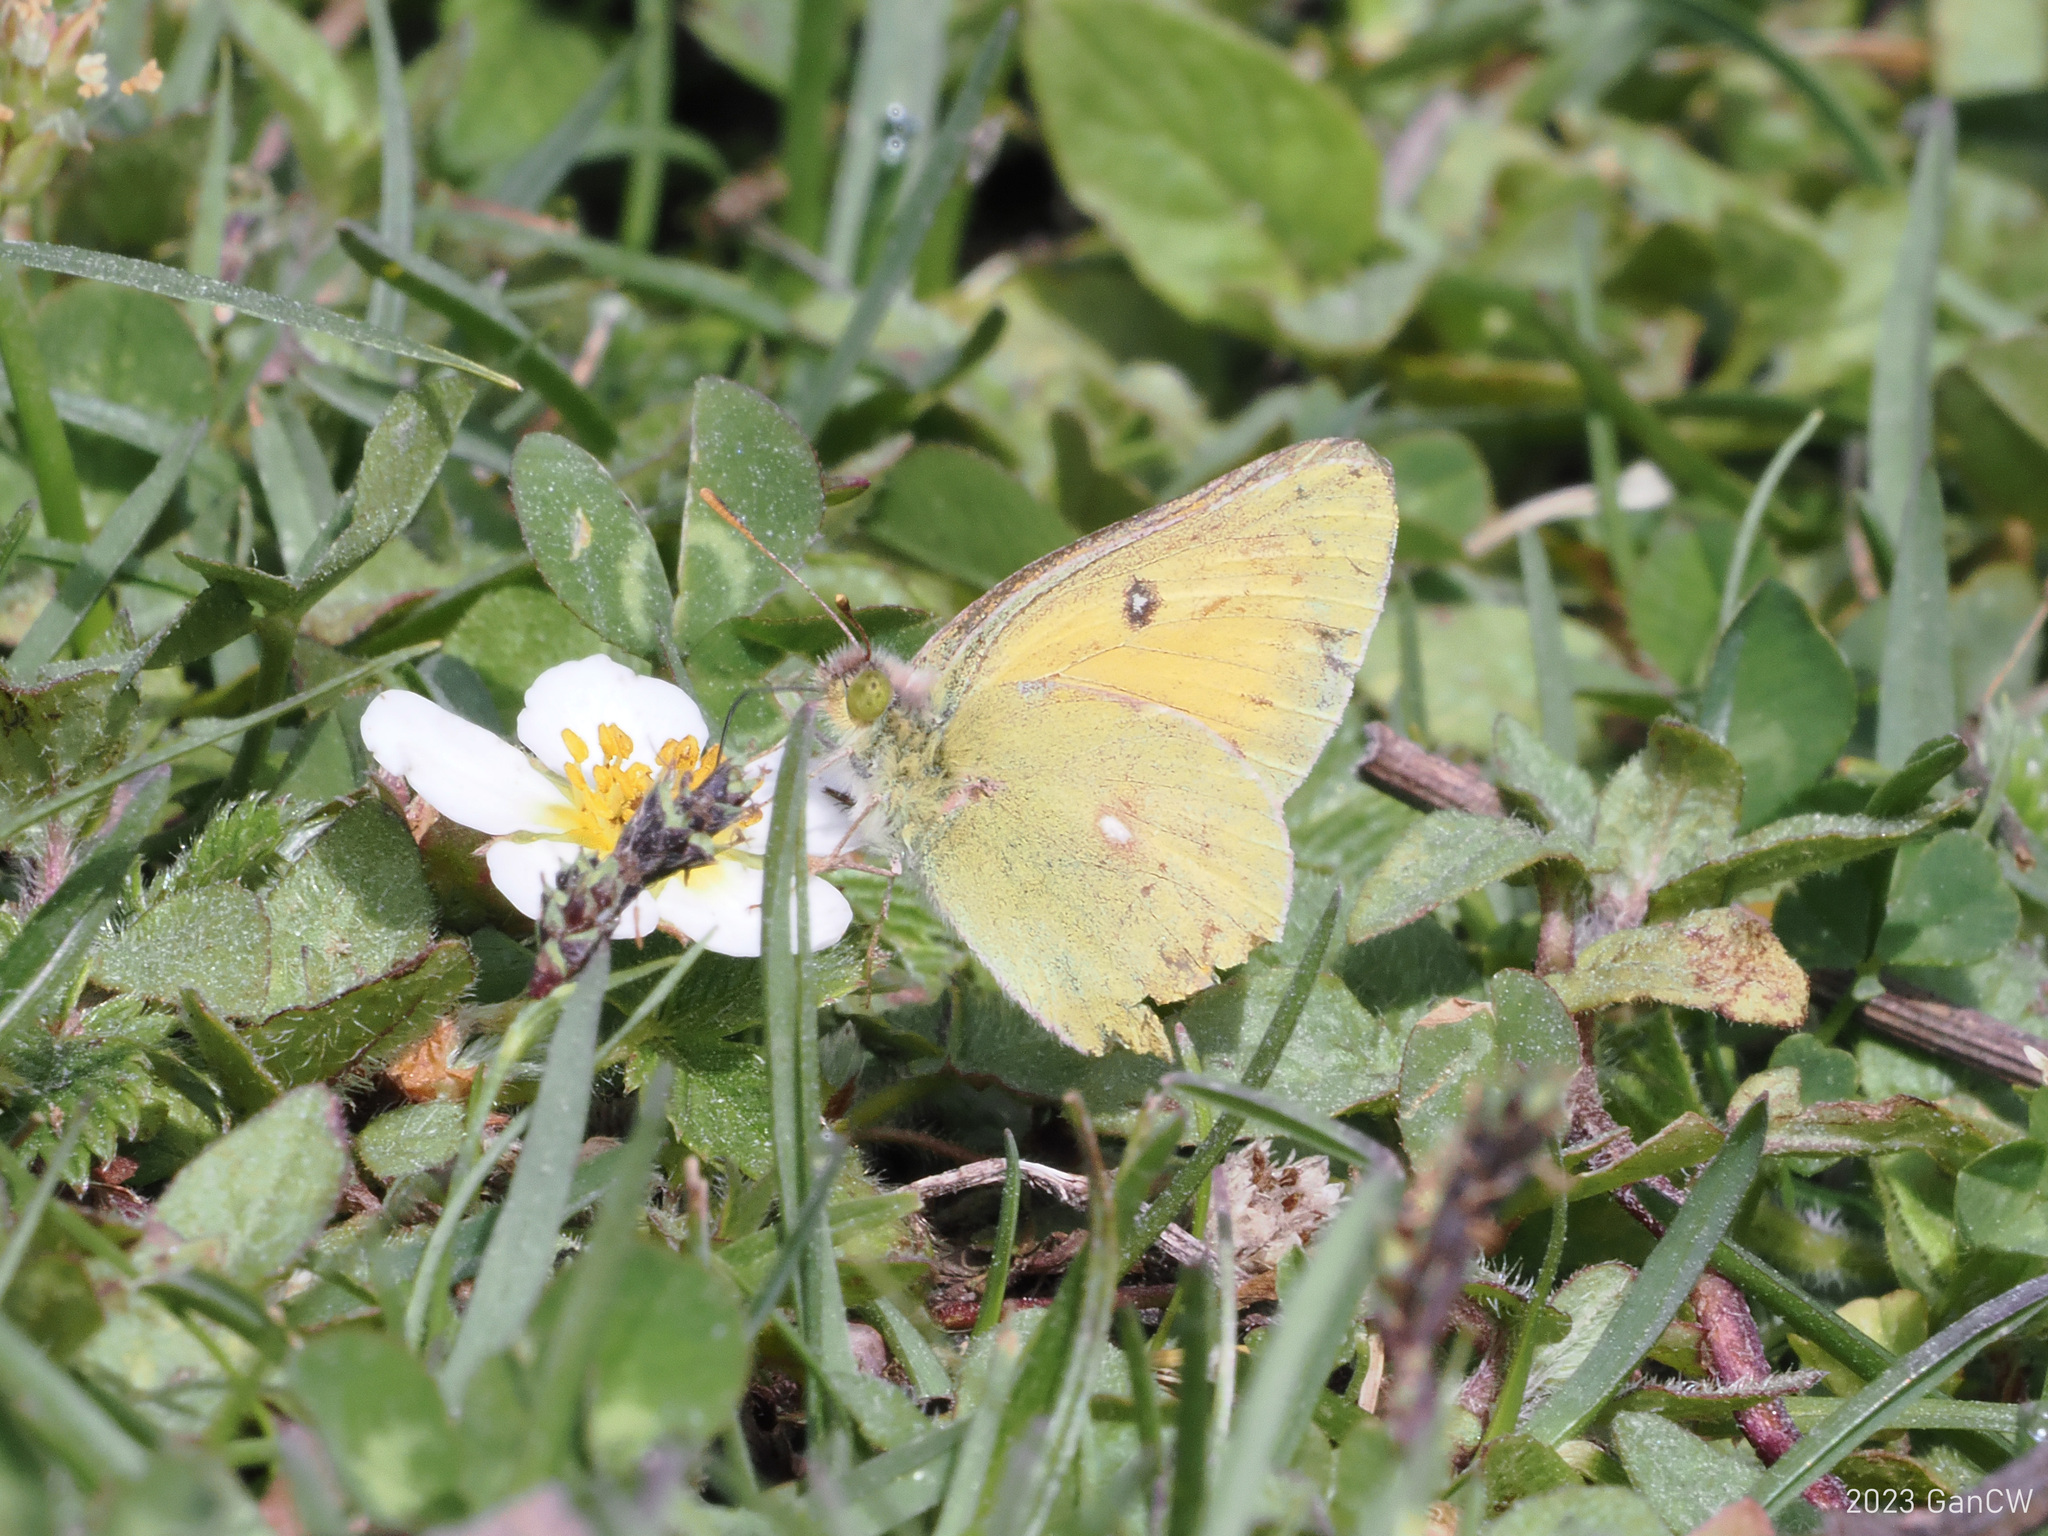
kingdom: Animalia
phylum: Arthropoda
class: Insecta
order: Lepidoptera
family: Pieridae
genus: Colias
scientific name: Colias fieldii
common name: Dark clouded yellow
